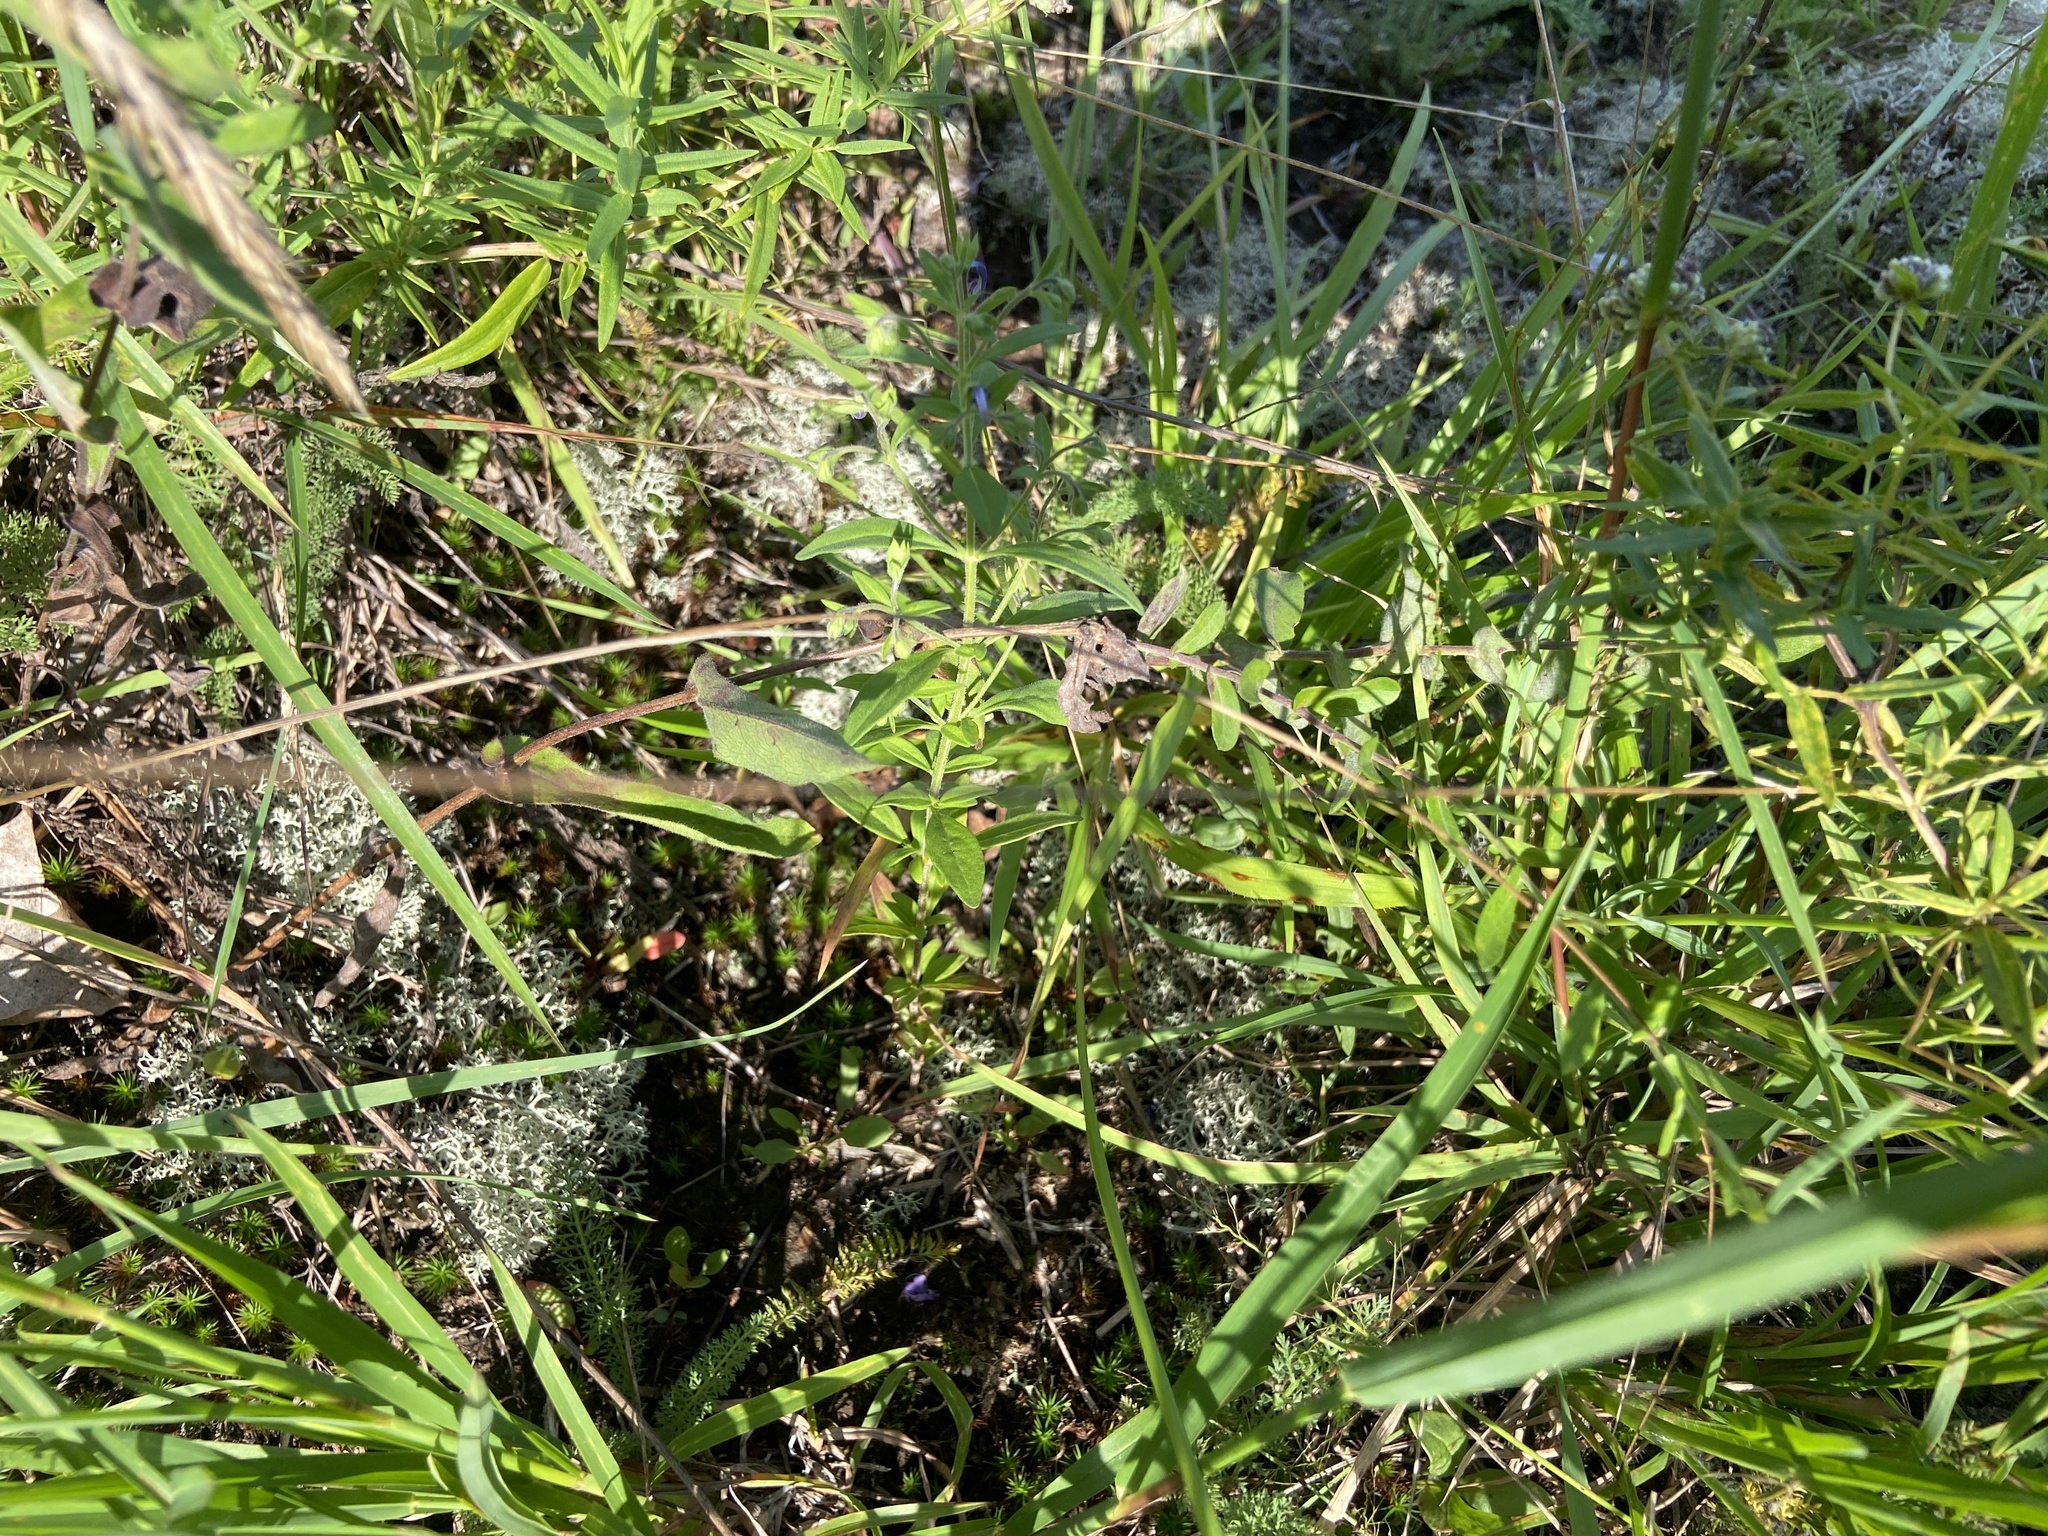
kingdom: Plantae
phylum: Tracheophyta
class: Magnoliopsida
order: Lamiales
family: Lamiaceae
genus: Trichostema
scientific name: Trichostema dichotomum
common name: Bastard pennyroyal
